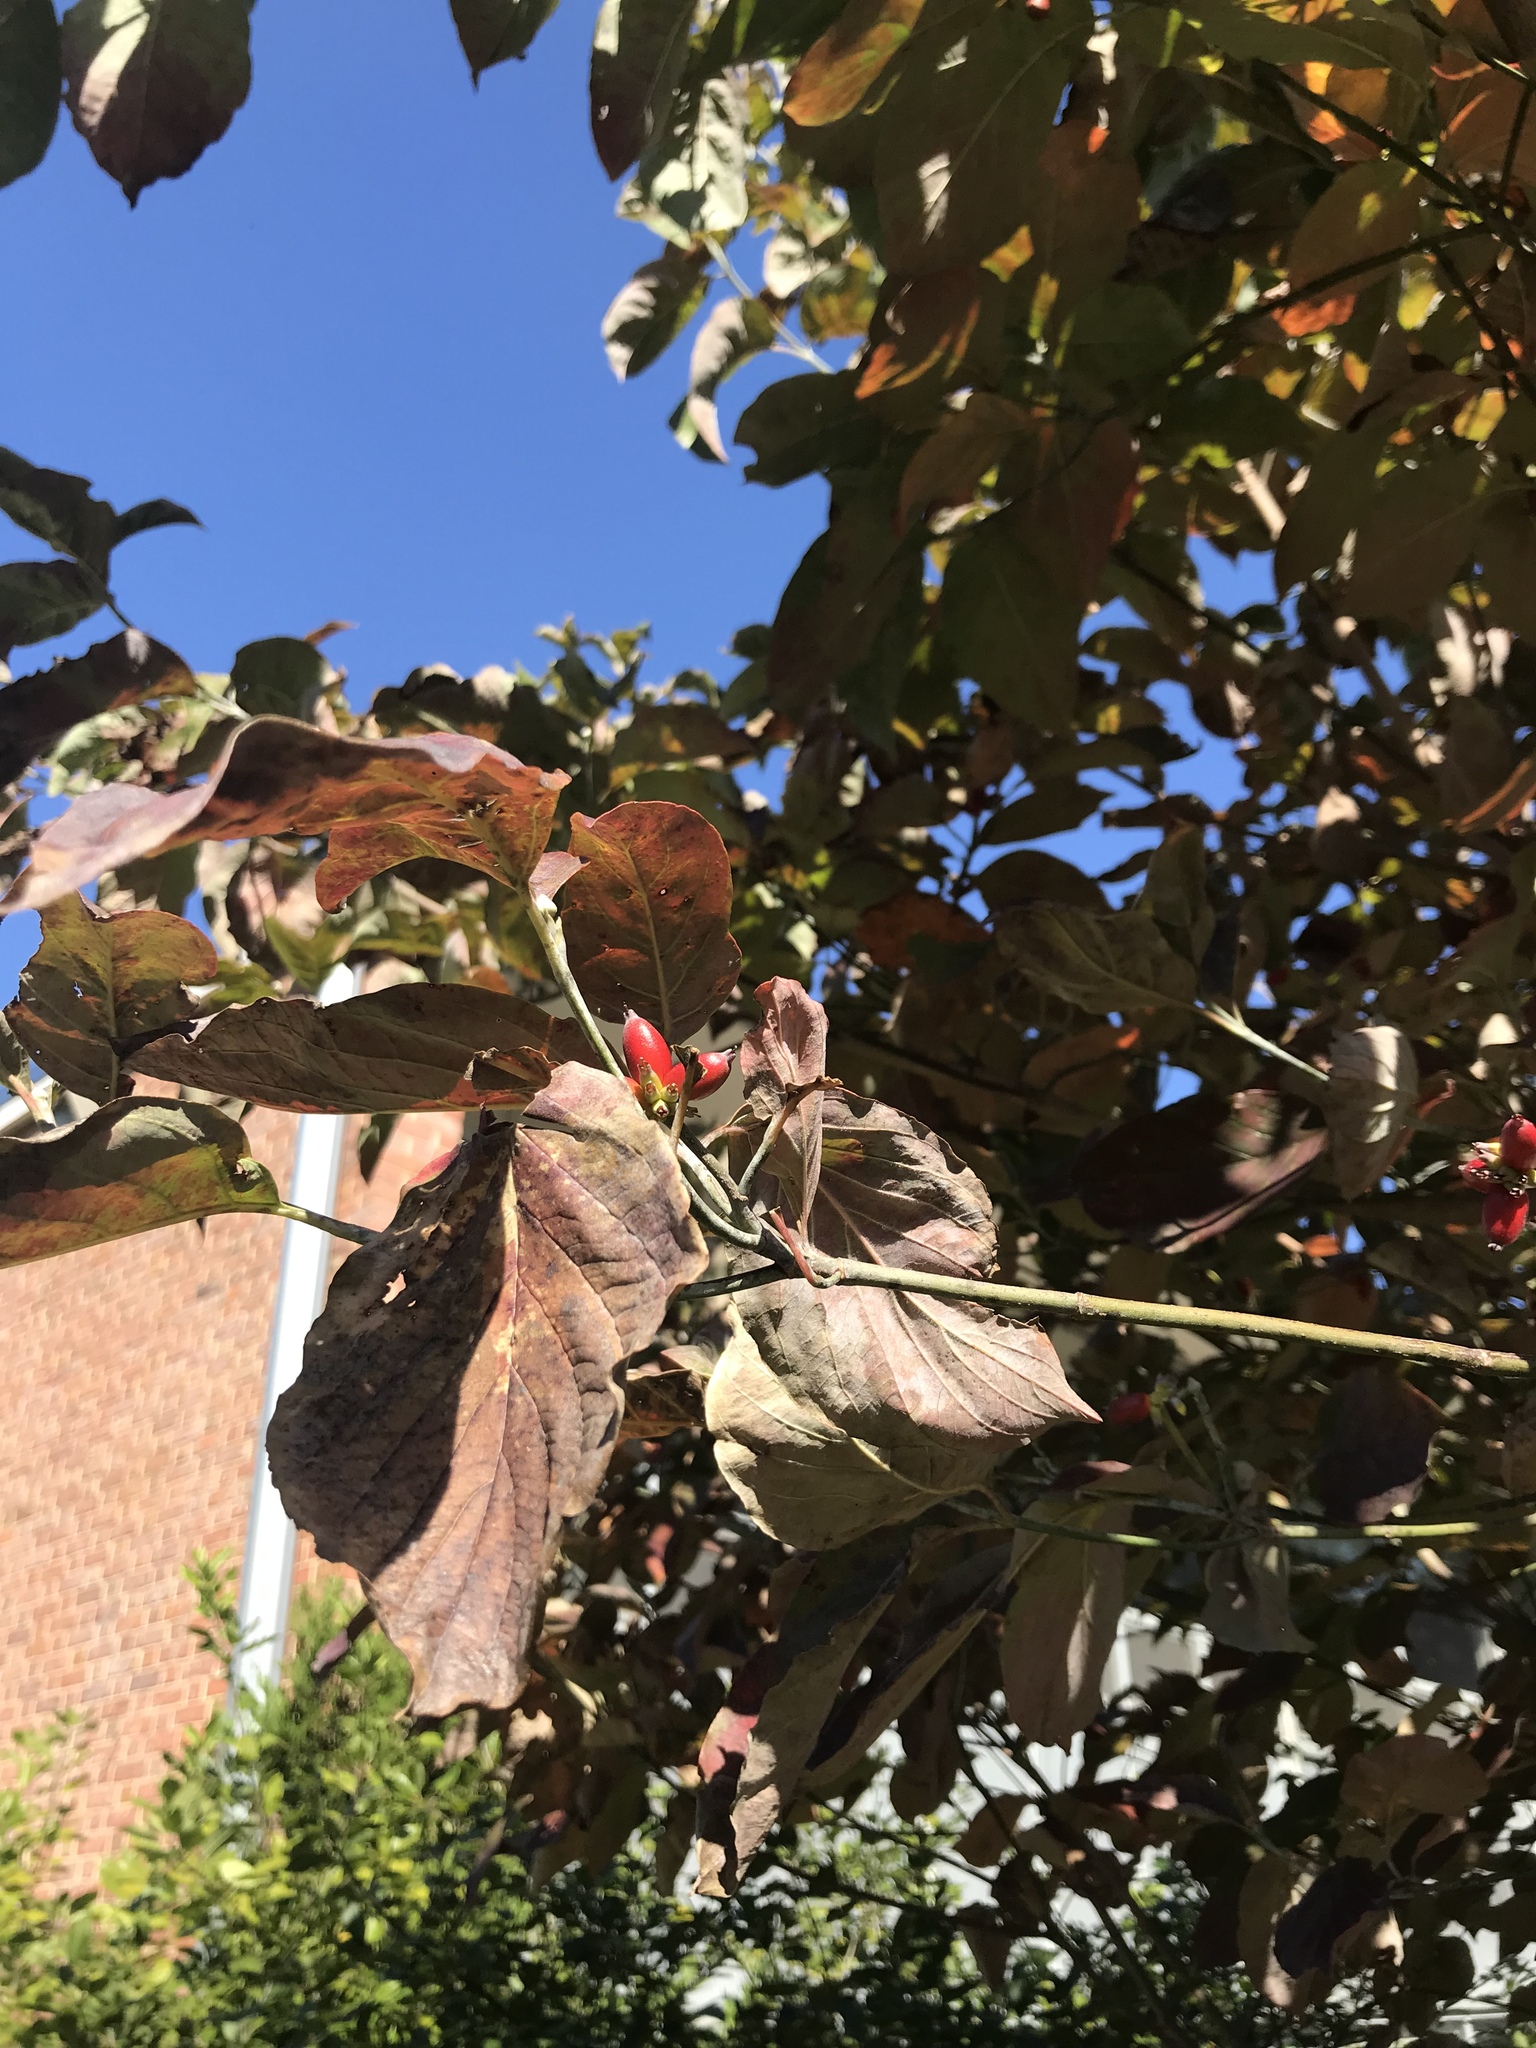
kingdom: Plantae
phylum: Tracheophyta
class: Magnoliopsida
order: Cornales
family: Cornaceae
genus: Cornus
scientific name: Cornus florida
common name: Flowering dogwood
